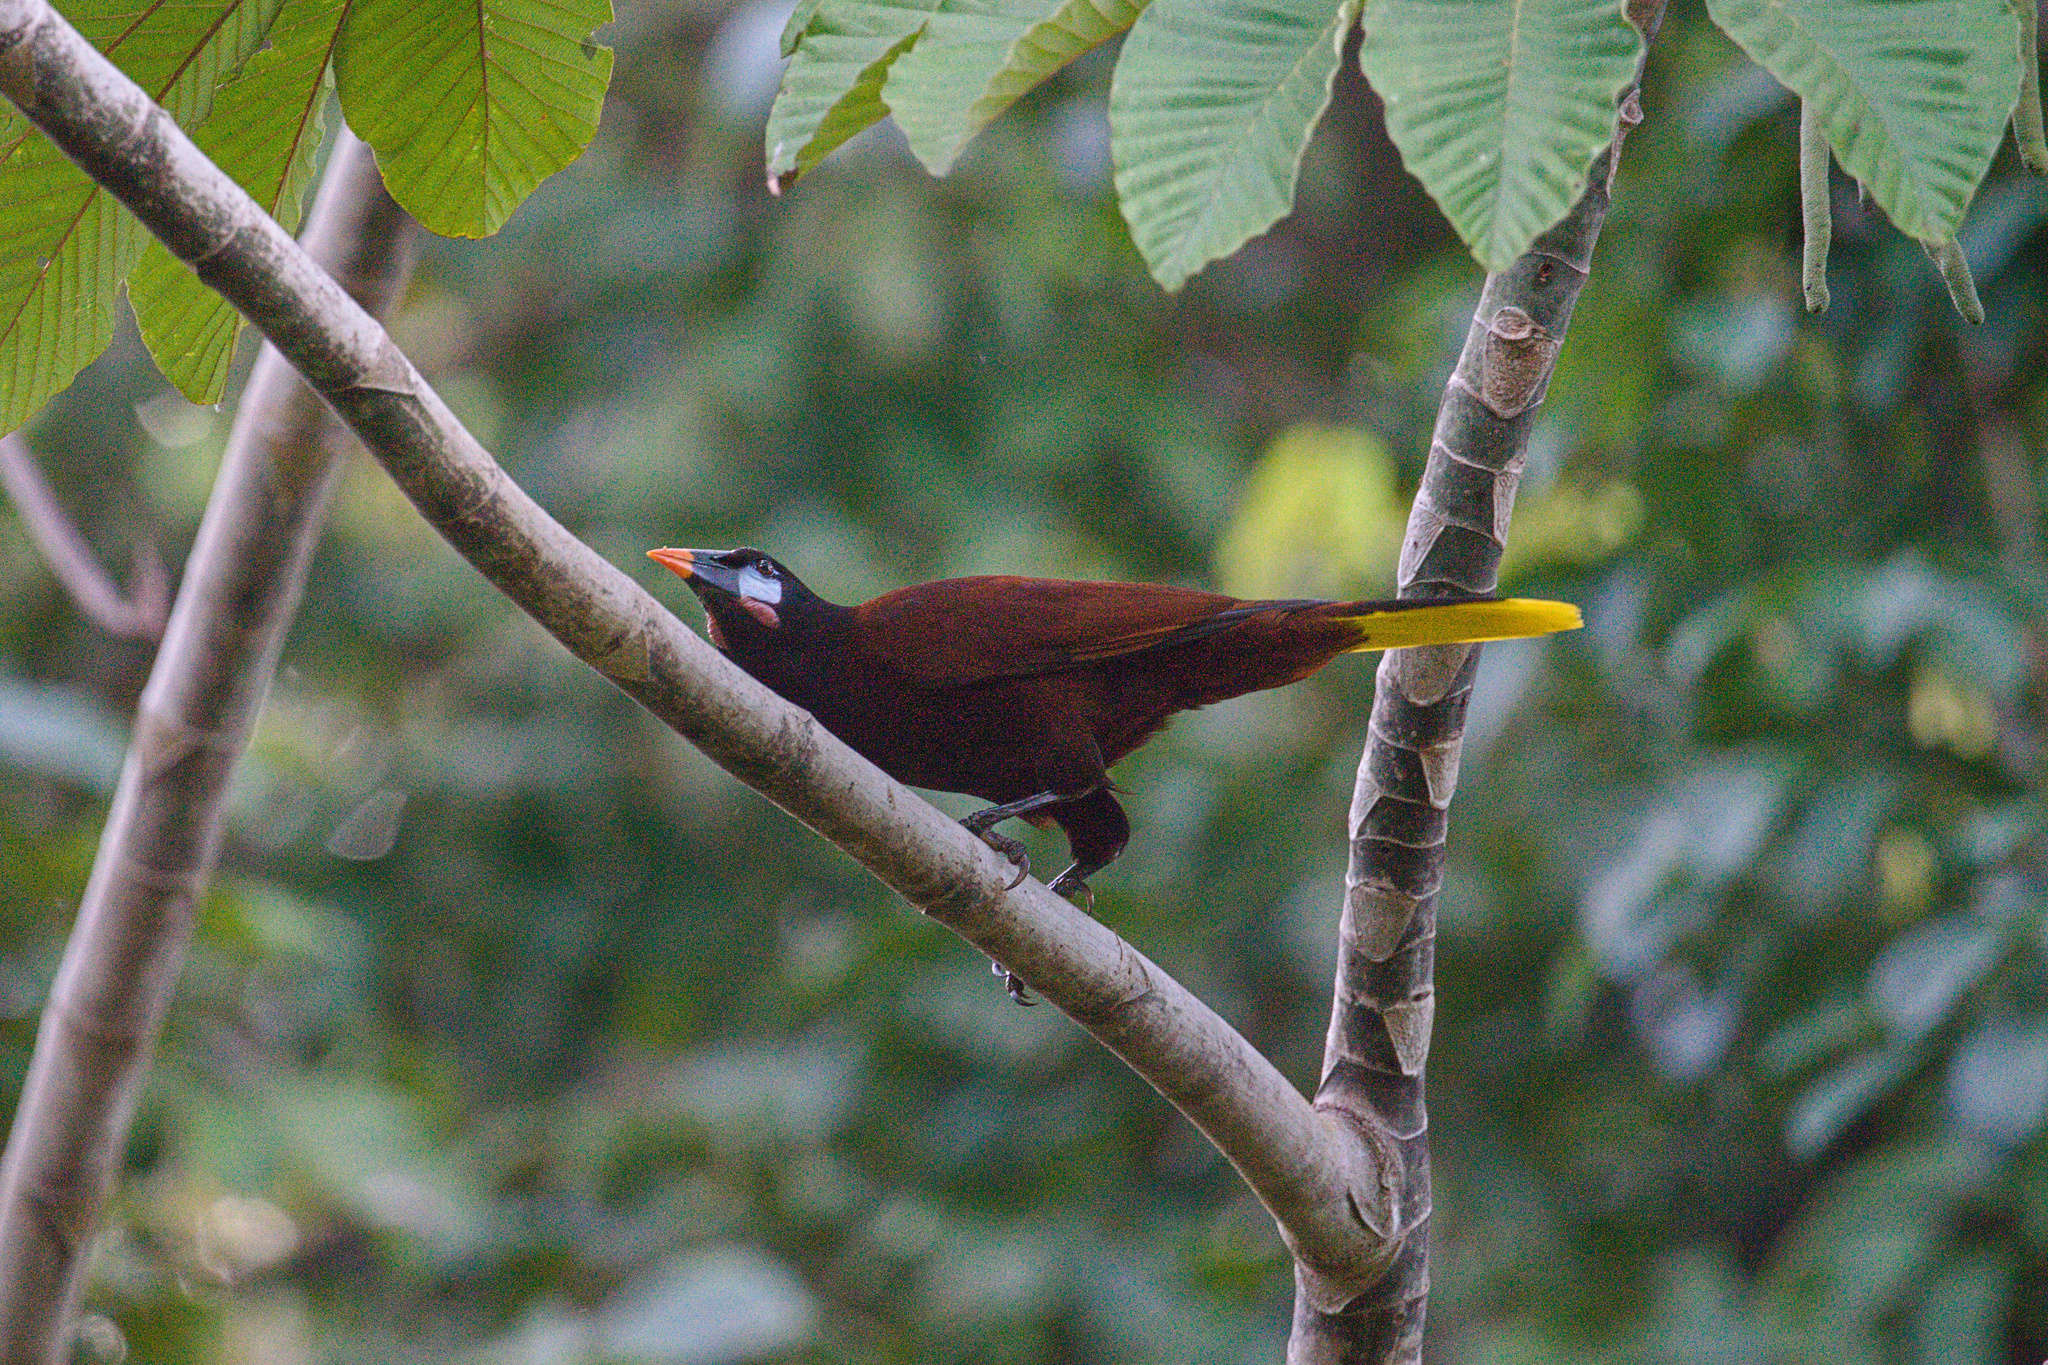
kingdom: Animalia
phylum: Chordata
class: Aves
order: Passeriformes
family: Icteridae
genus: Psarocolius
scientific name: Psarocolius montezuma
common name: Montezuma oropendola
